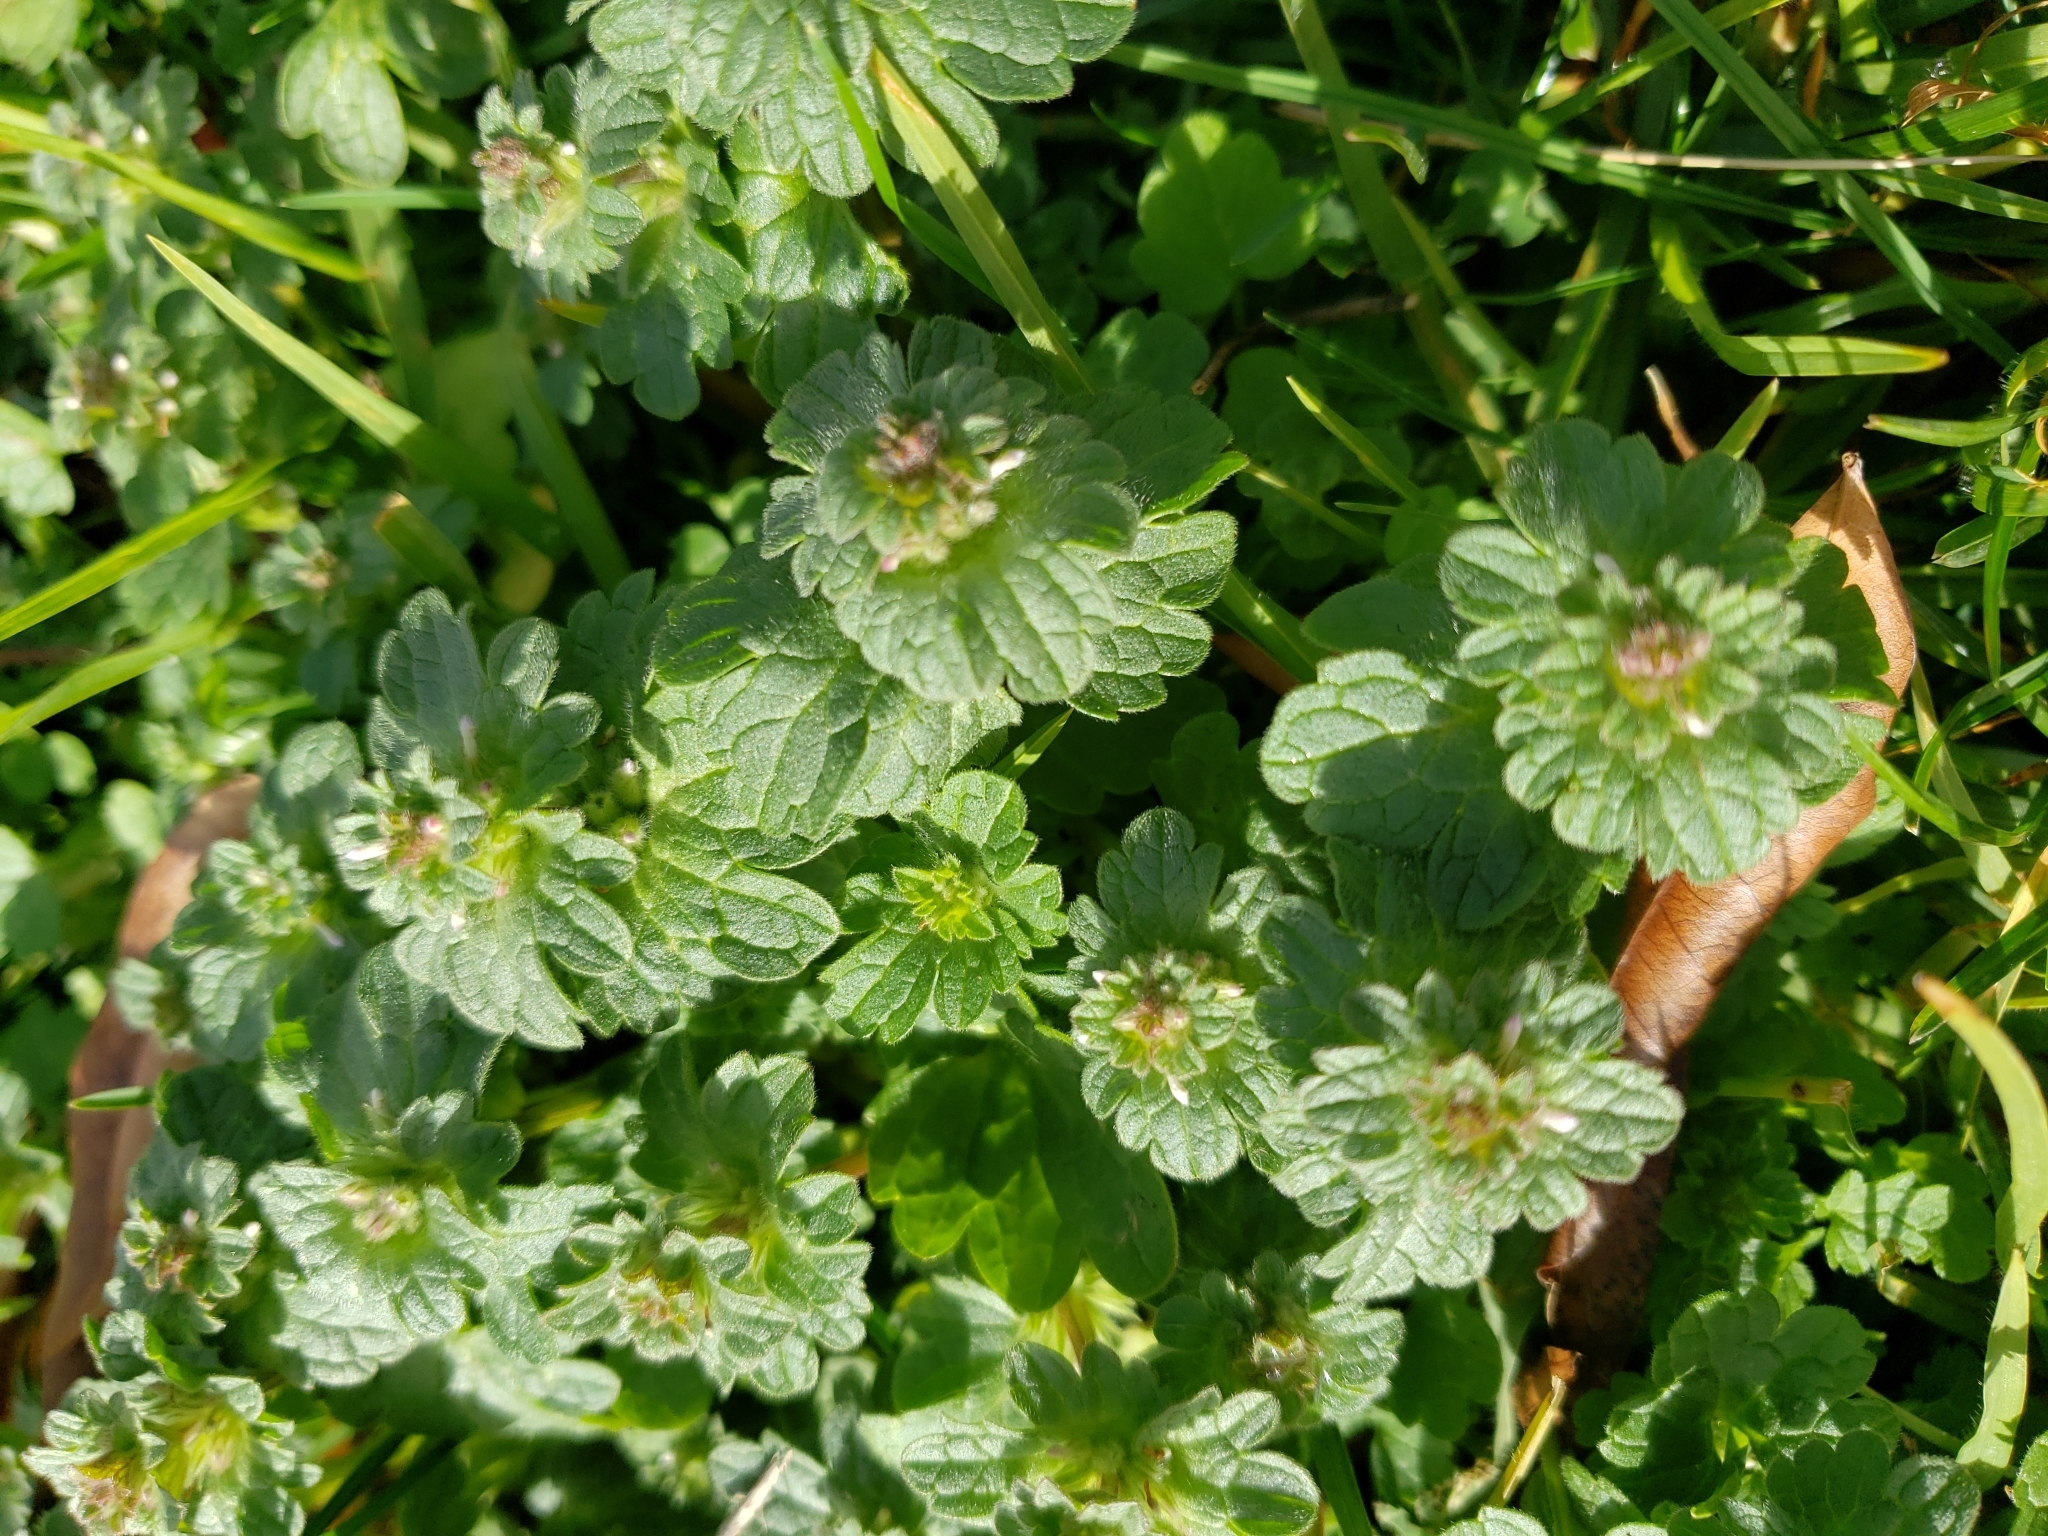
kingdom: Plantae
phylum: Tracheophyta
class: Magnoliopsida
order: Lamiales
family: Lamiaceae
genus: Lamium
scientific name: Lamium amplexicaule
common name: Henbit dead-nettle
